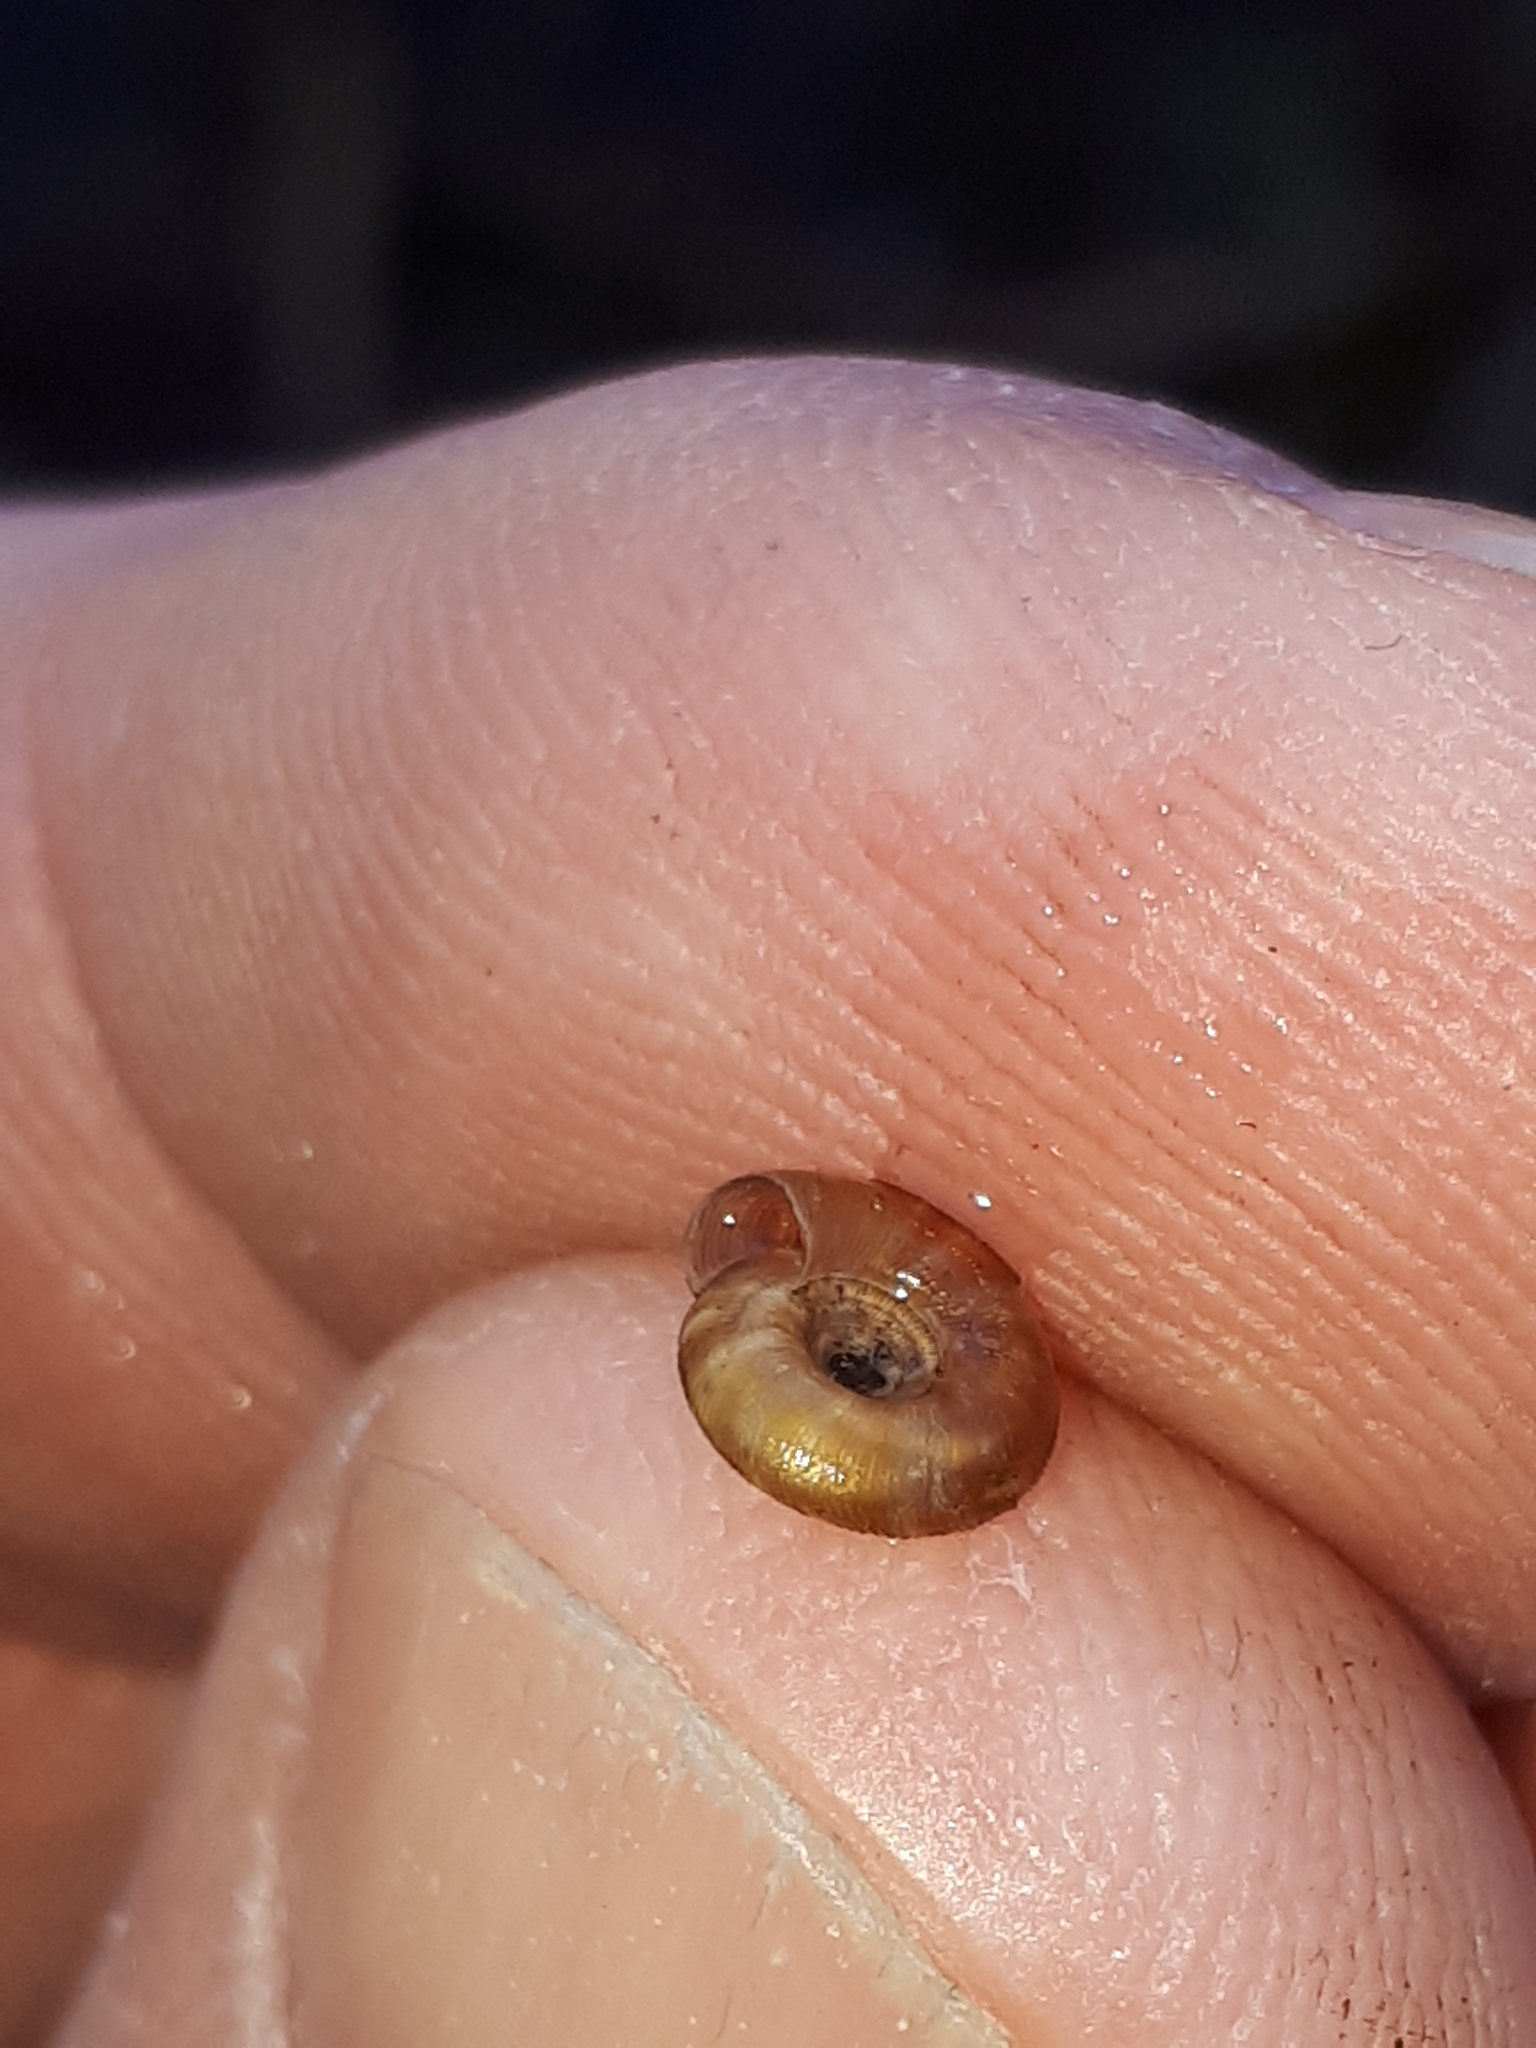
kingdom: Animalia
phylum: Mollusca
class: Gastropoda
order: Stylommatophora
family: Discidae
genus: Discus
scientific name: Discus rotundatus
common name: Rounded snail
